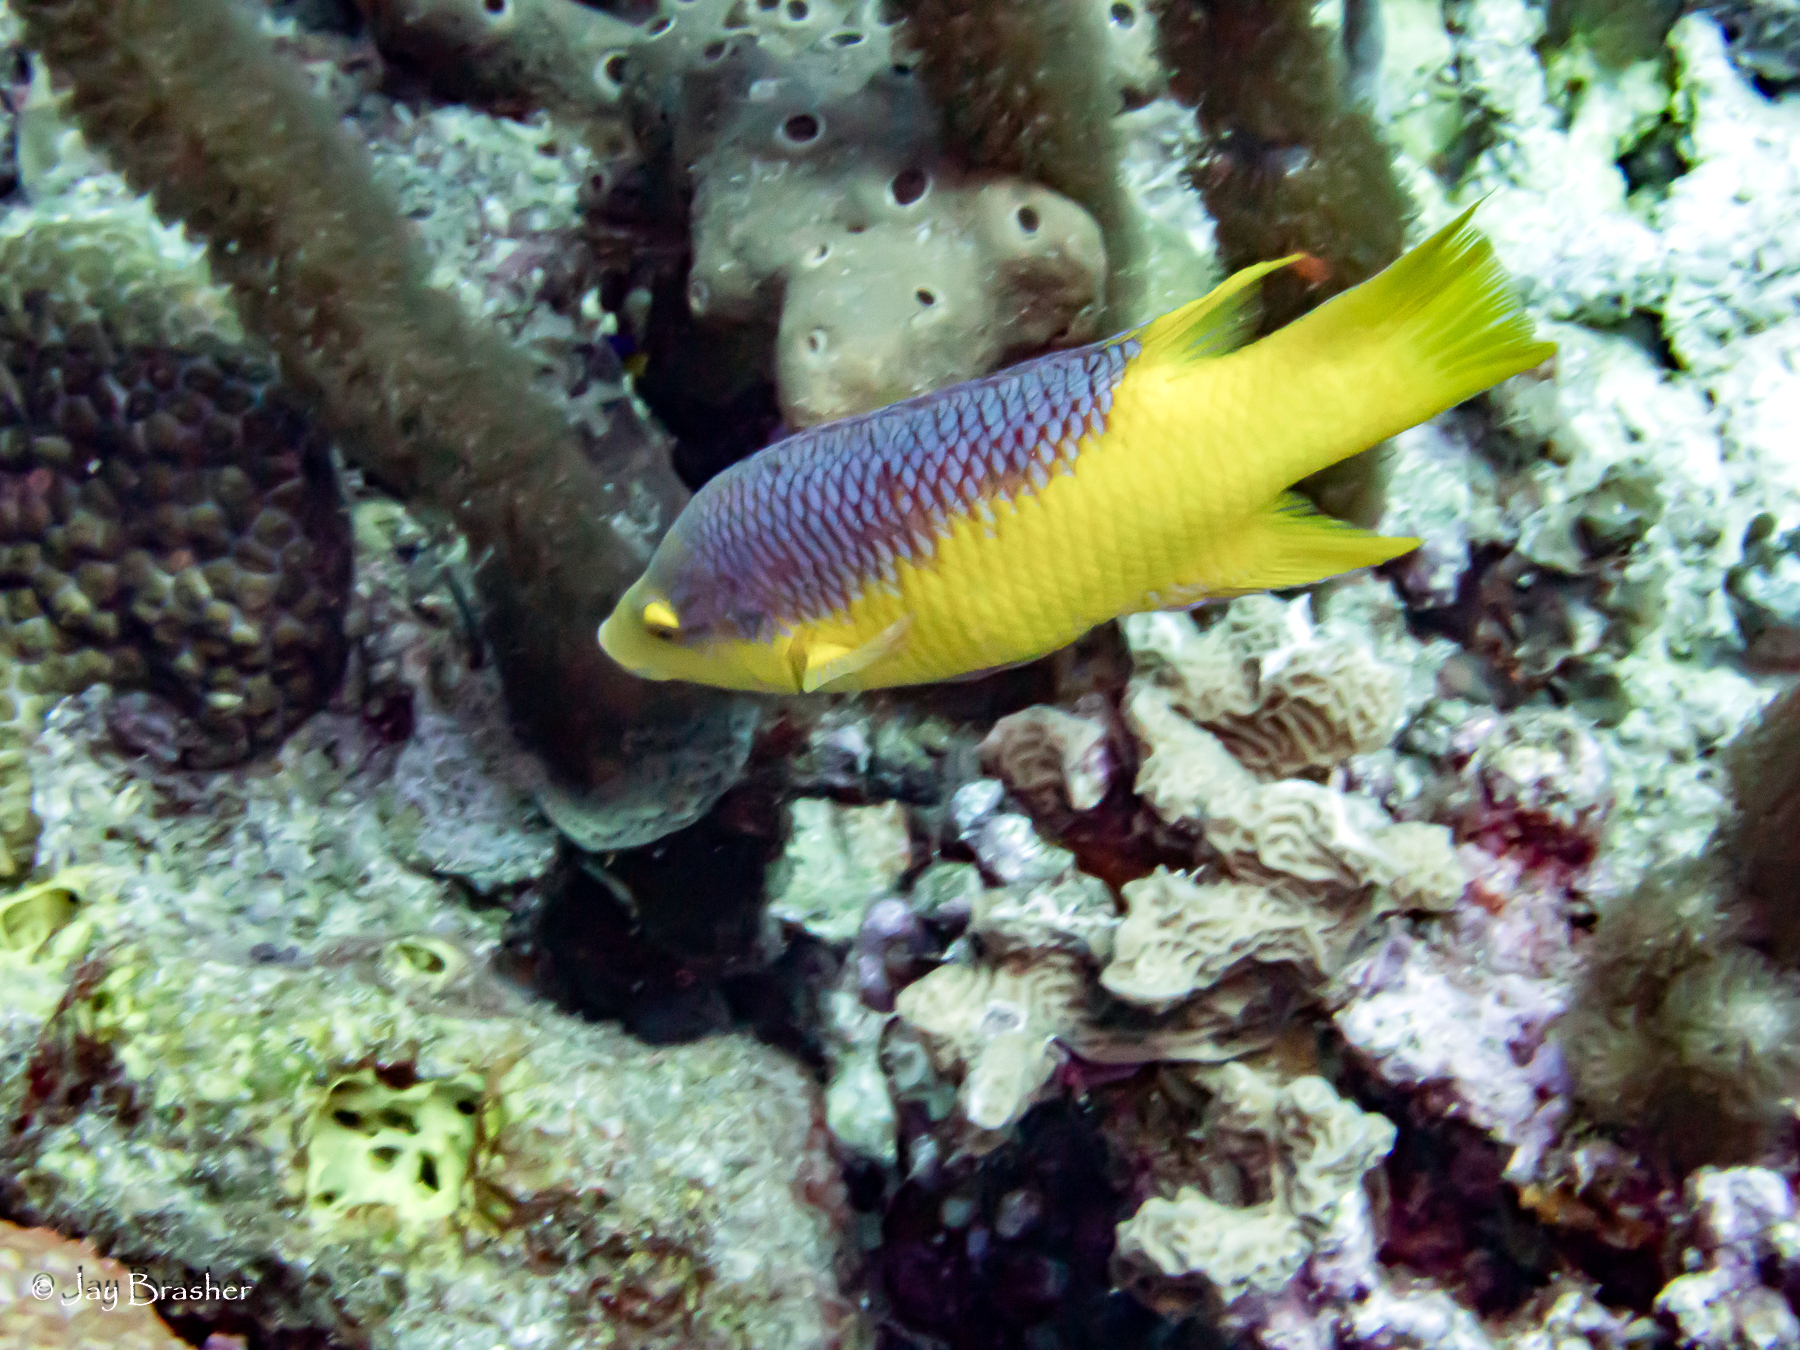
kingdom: Animalia
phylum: Chordata
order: Perciformes
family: Labridae
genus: Bodianus
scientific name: Bodianus rufus
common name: Spanish hogfish
